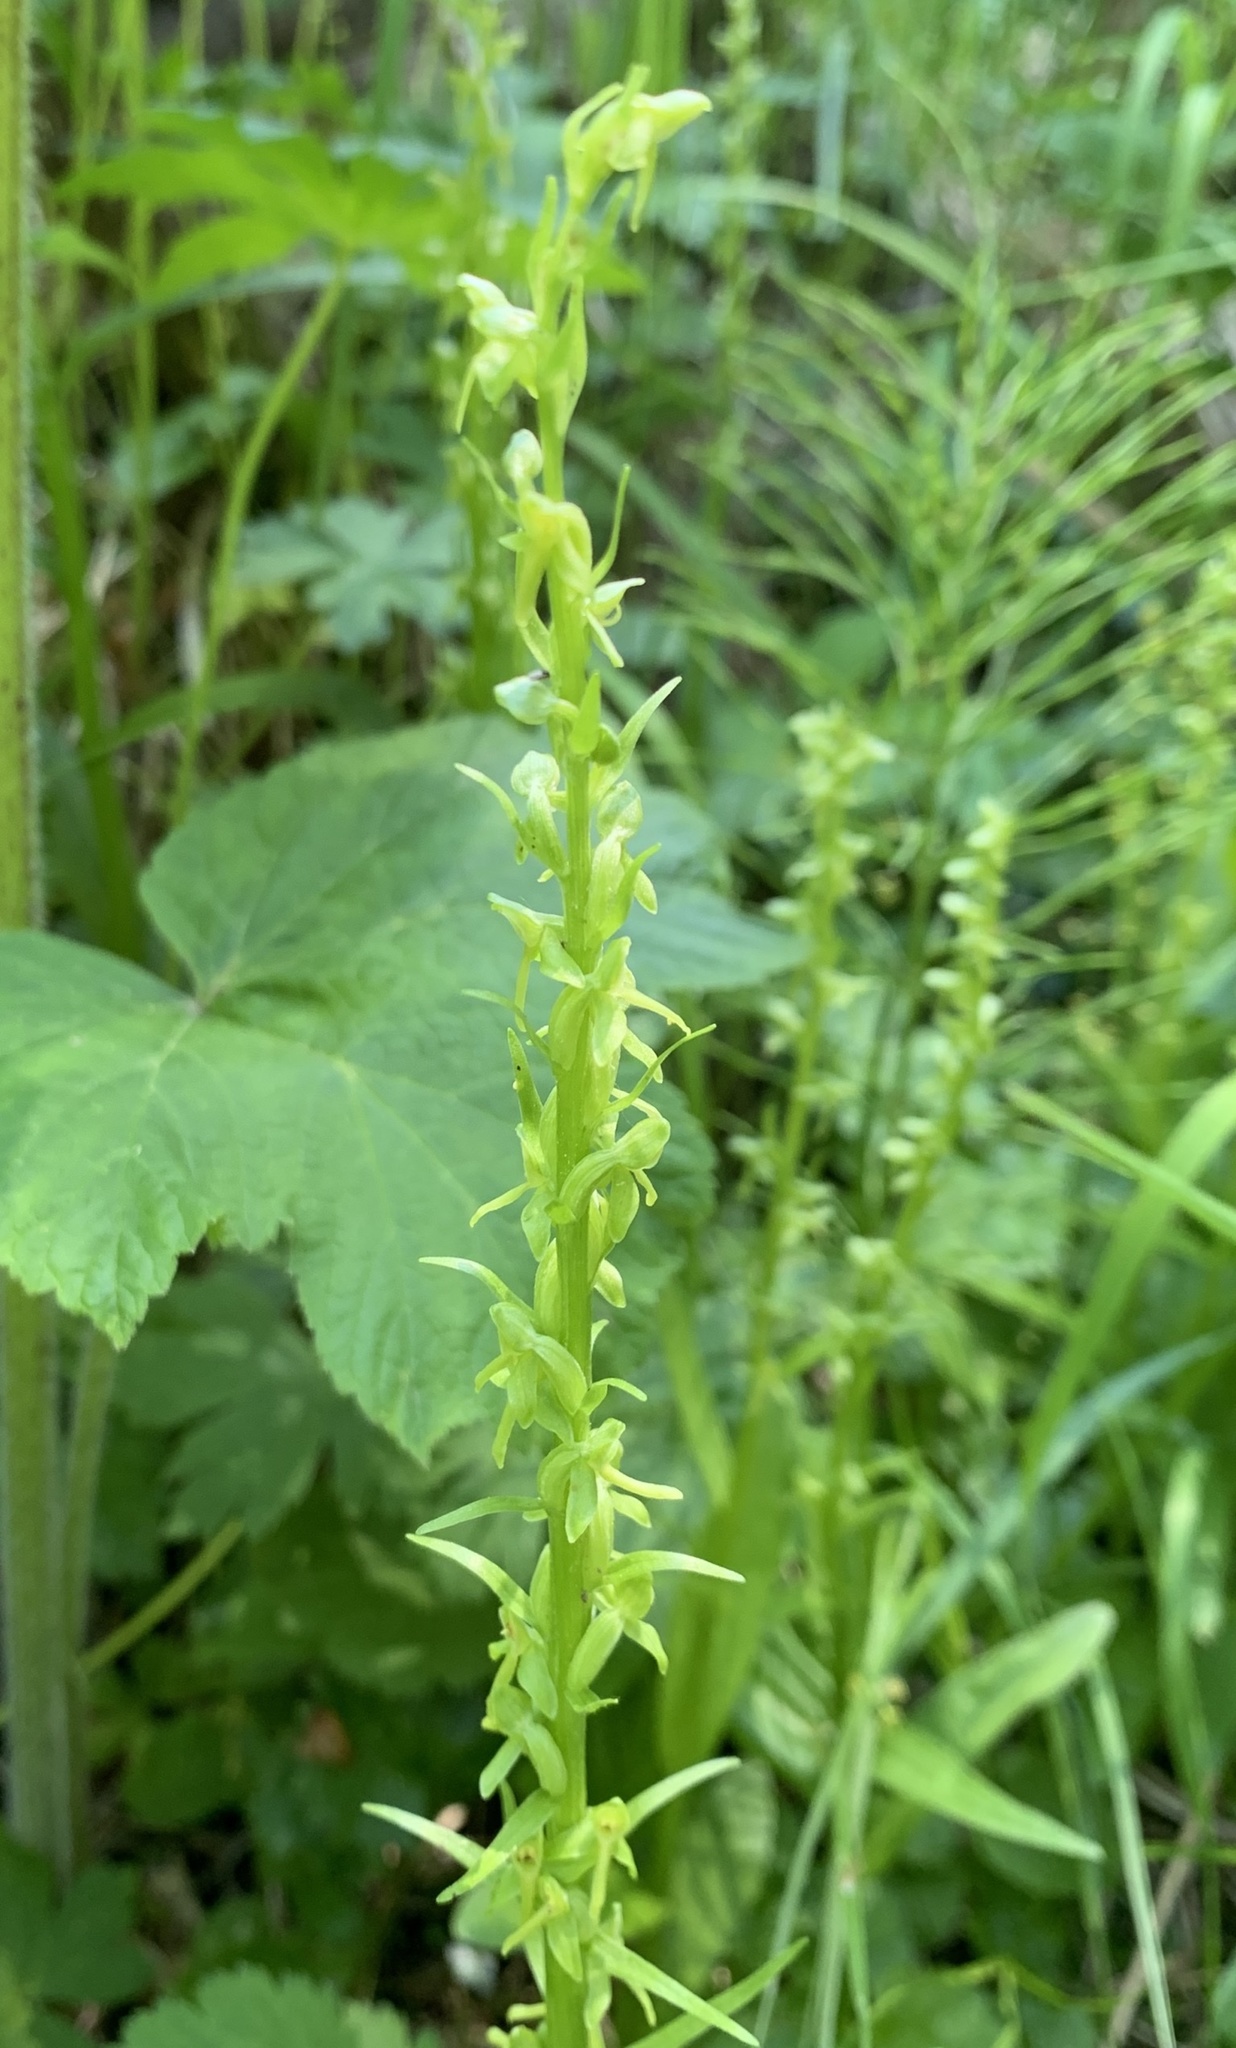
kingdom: Plantae
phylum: Tracheophyta
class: Liliopsida
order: Asparagales
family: Orchidaceae
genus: Platanthera
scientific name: Platanthera stricta
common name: Slender bog orchid
